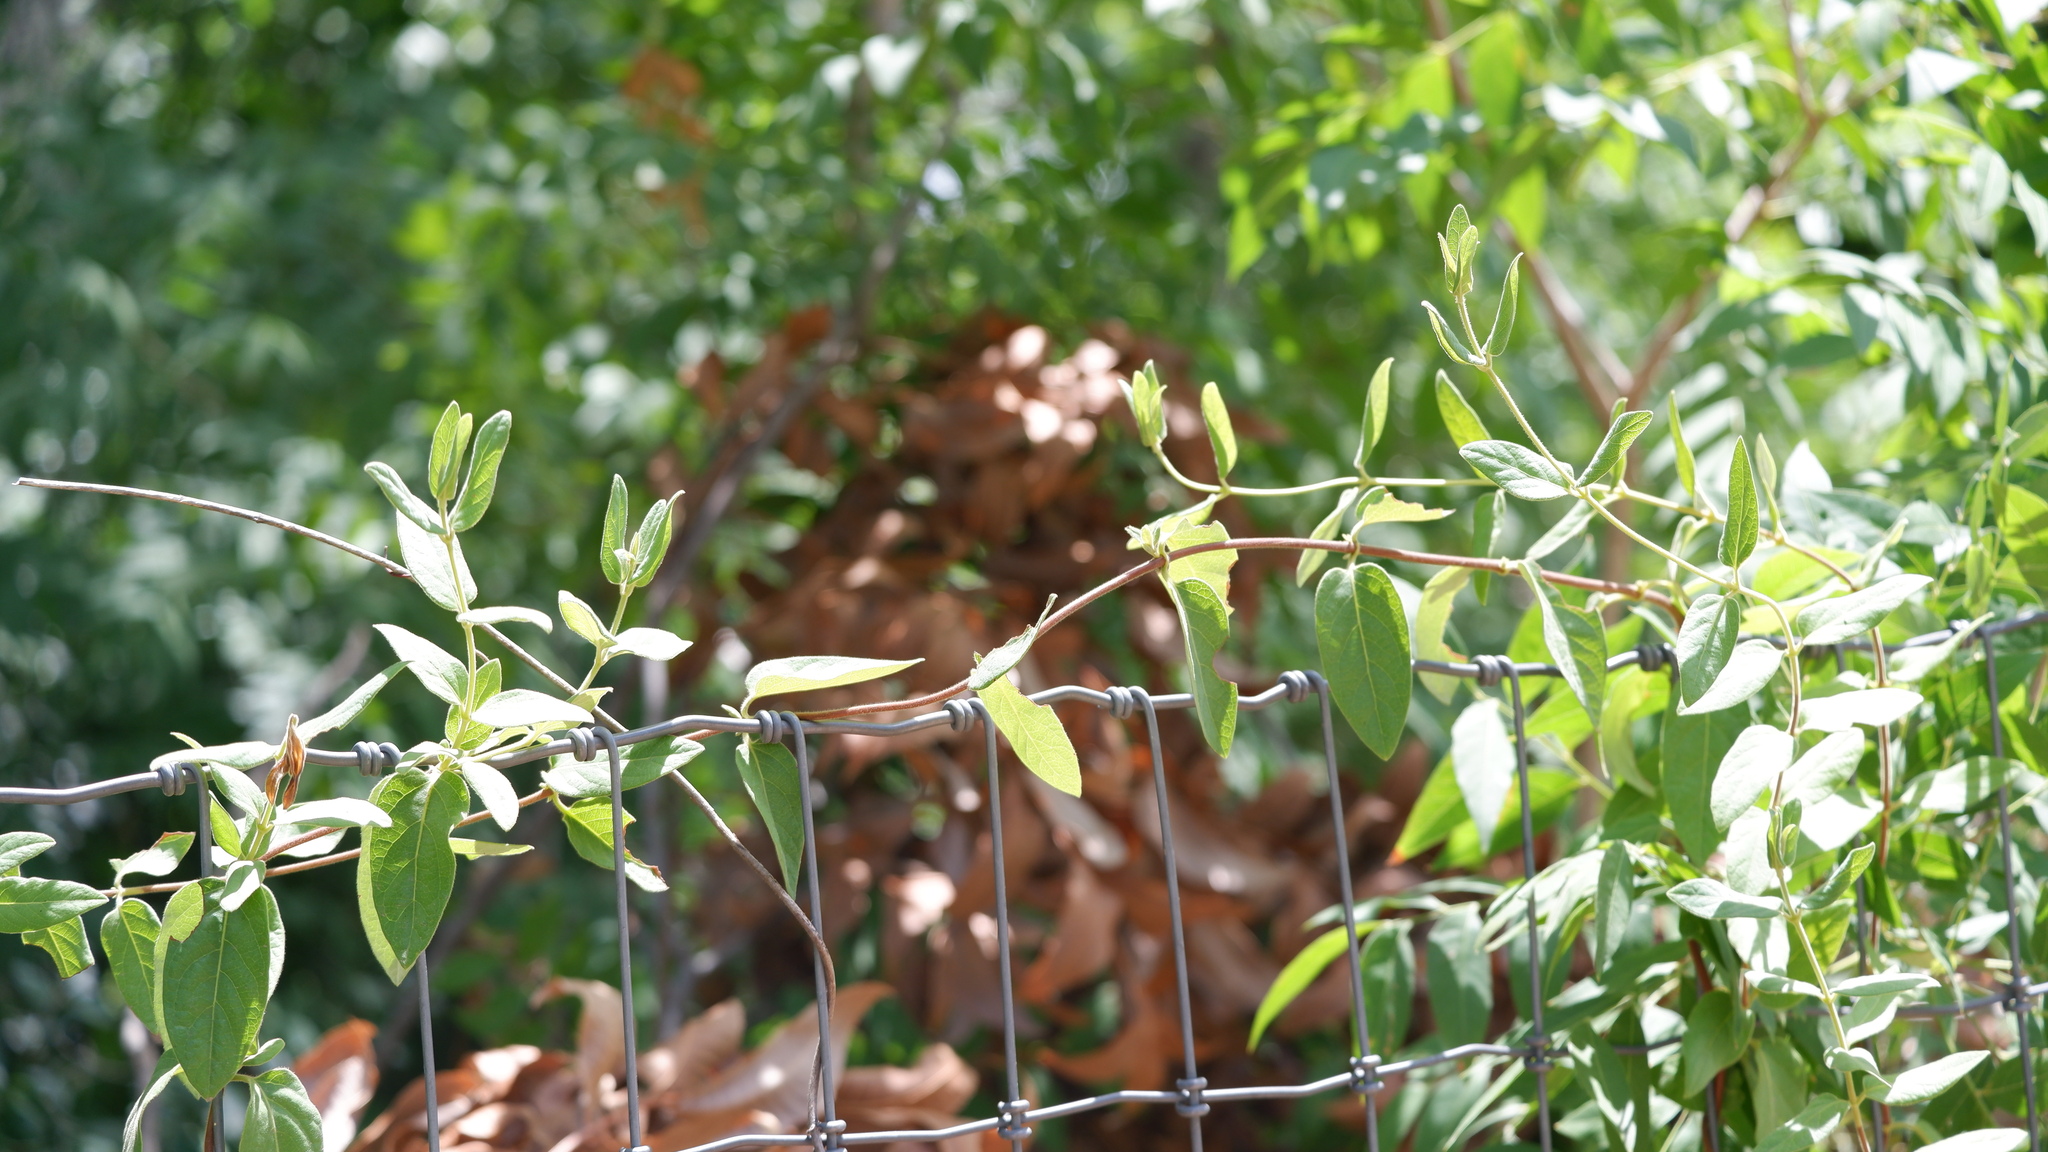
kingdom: Plantae
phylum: Tracheophyta
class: Magnoliopsida
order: Dipsacales
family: Caprifoliaceae
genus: Lonicera
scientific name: Lonicera japonica
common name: Japanese honeysuckle
